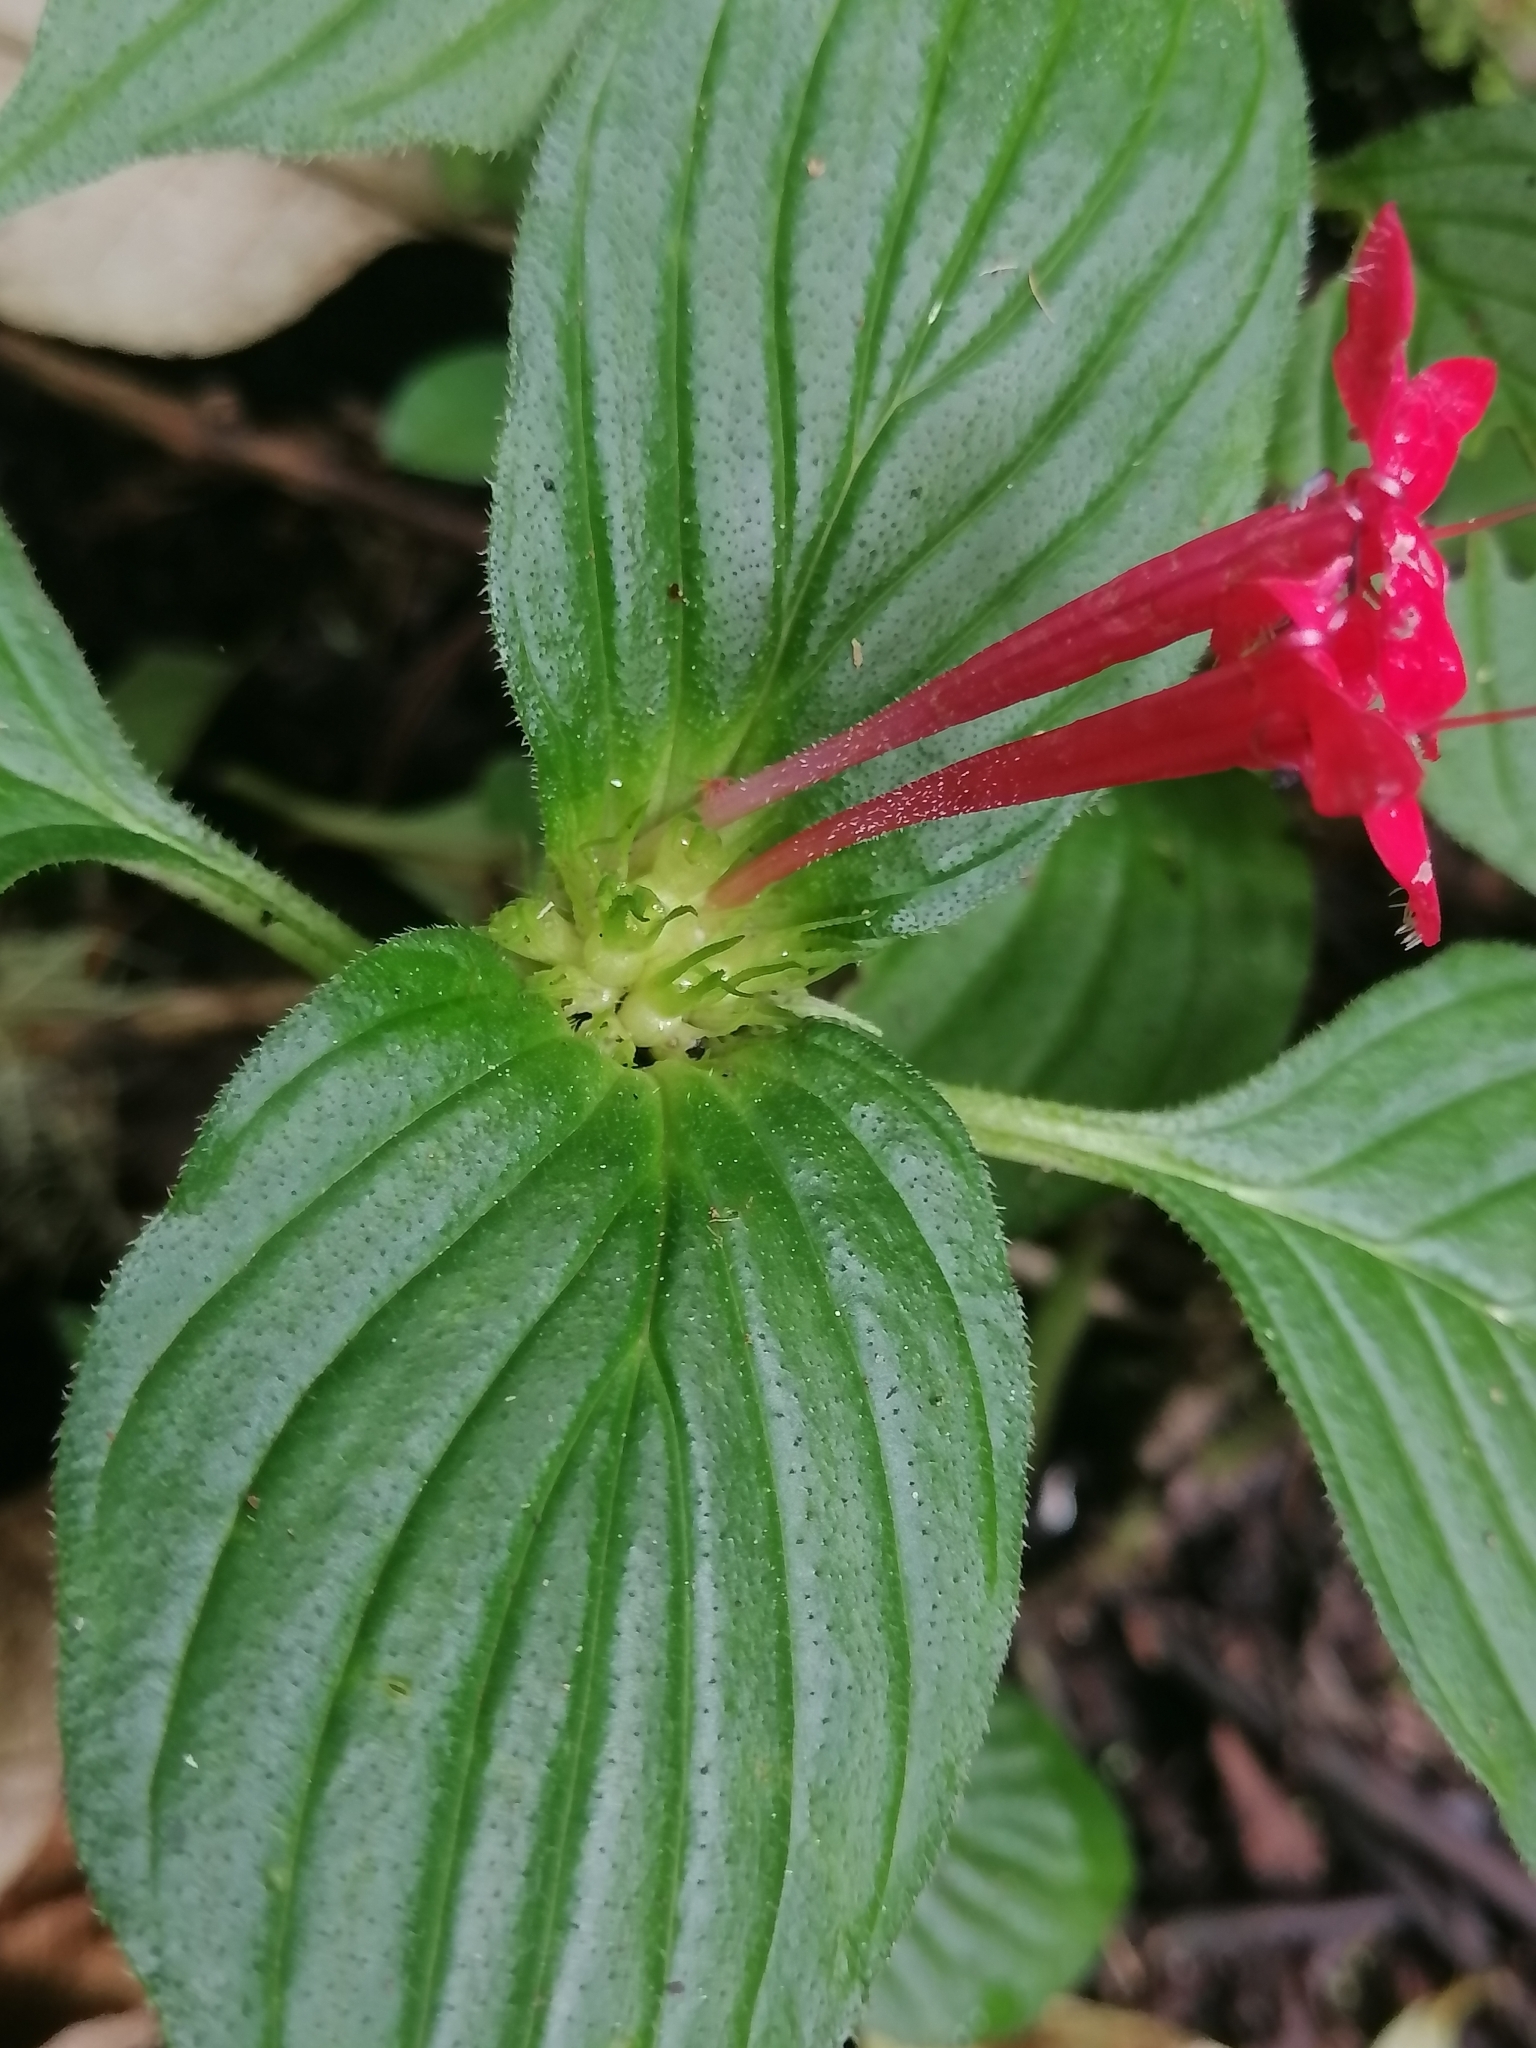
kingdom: Plantae
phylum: Tracheophyta
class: Magnoliopsida
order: Gentianales
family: Rubiaceae
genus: Crusea
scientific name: Crusea coccinea
